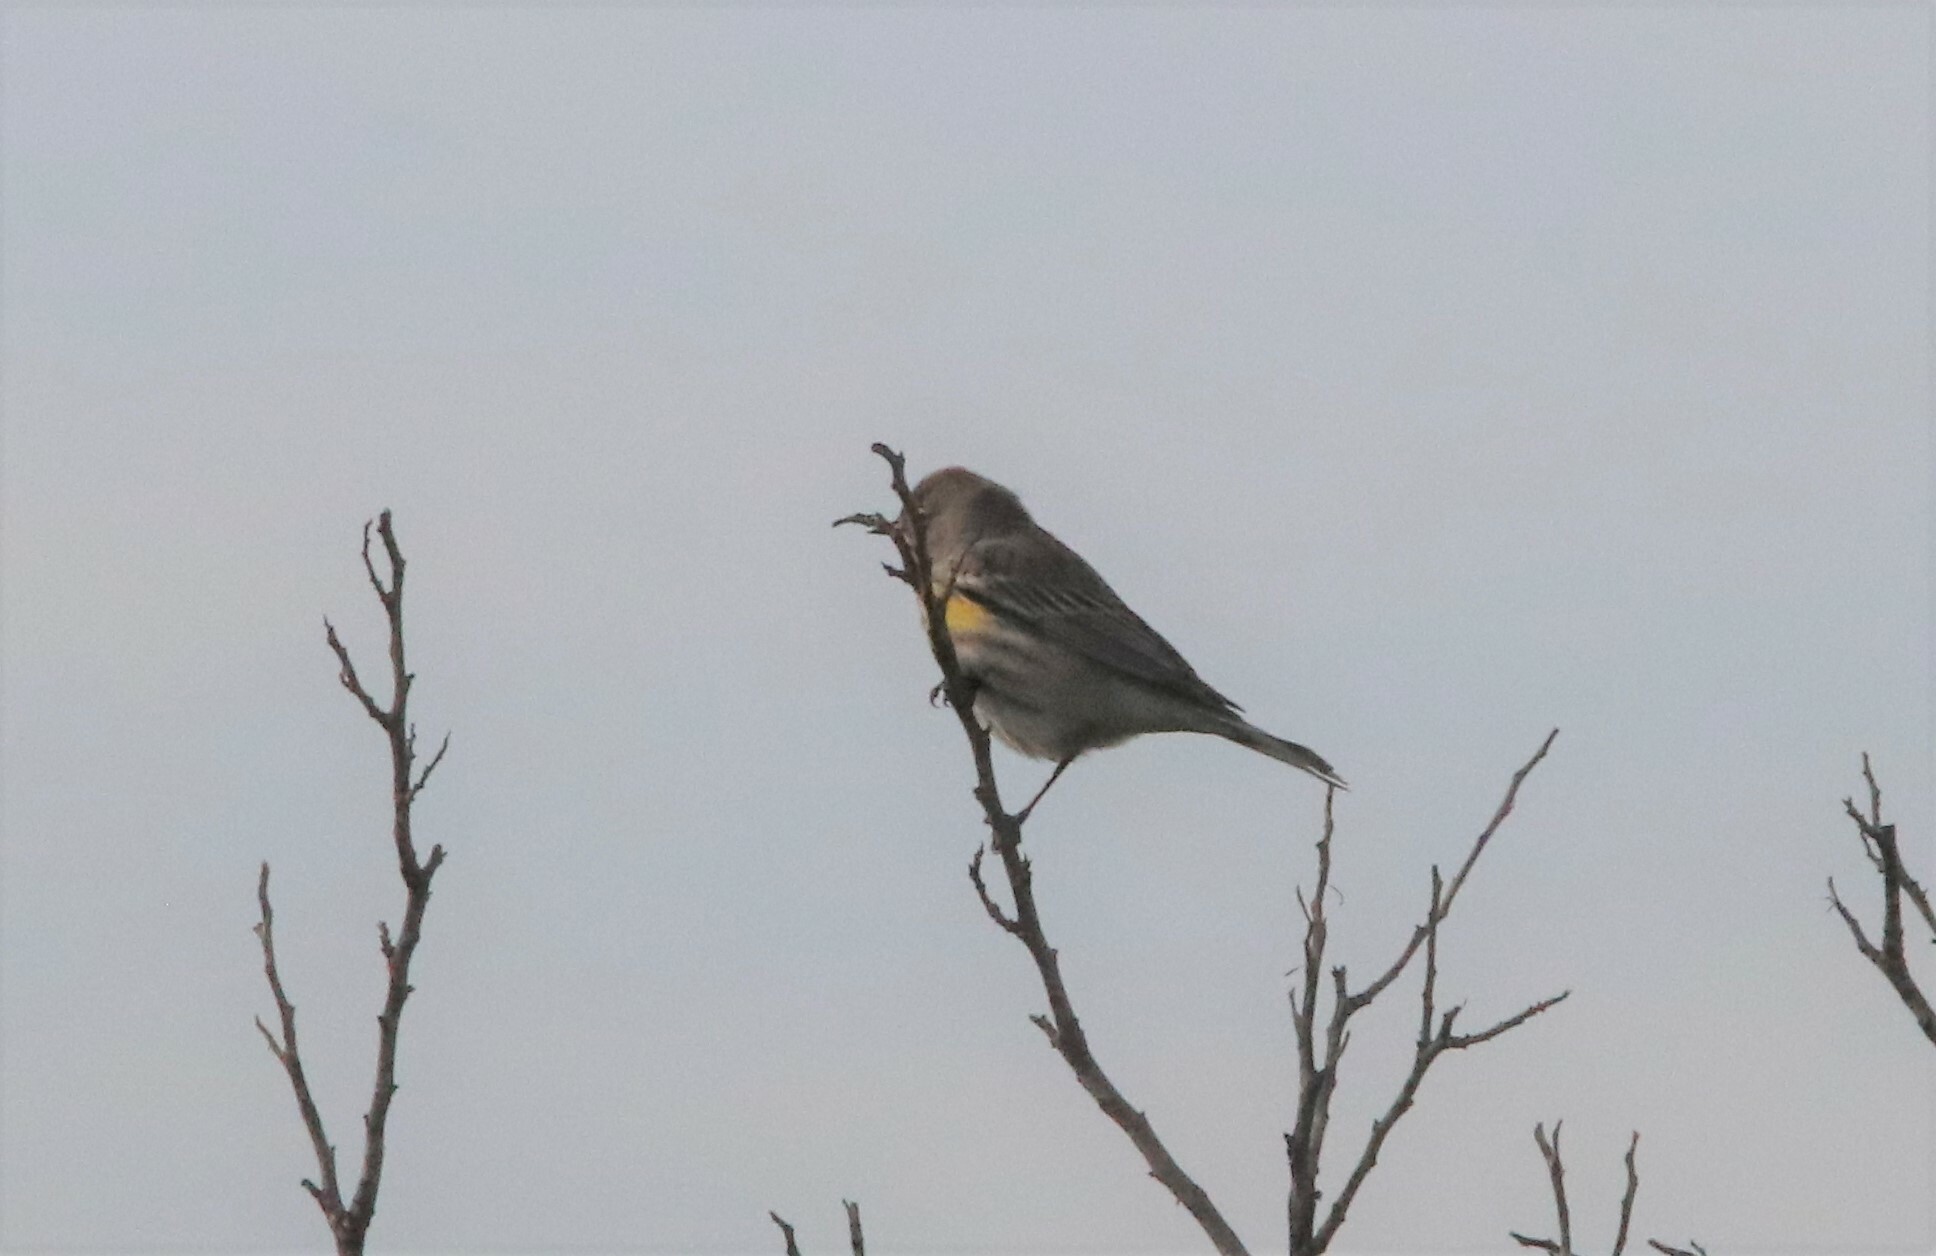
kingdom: Animalia
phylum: Chordata
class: Aves
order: Passeriformes
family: Parulidae
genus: Setophaga
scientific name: Setophaga coronata
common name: Myrtle warbler
